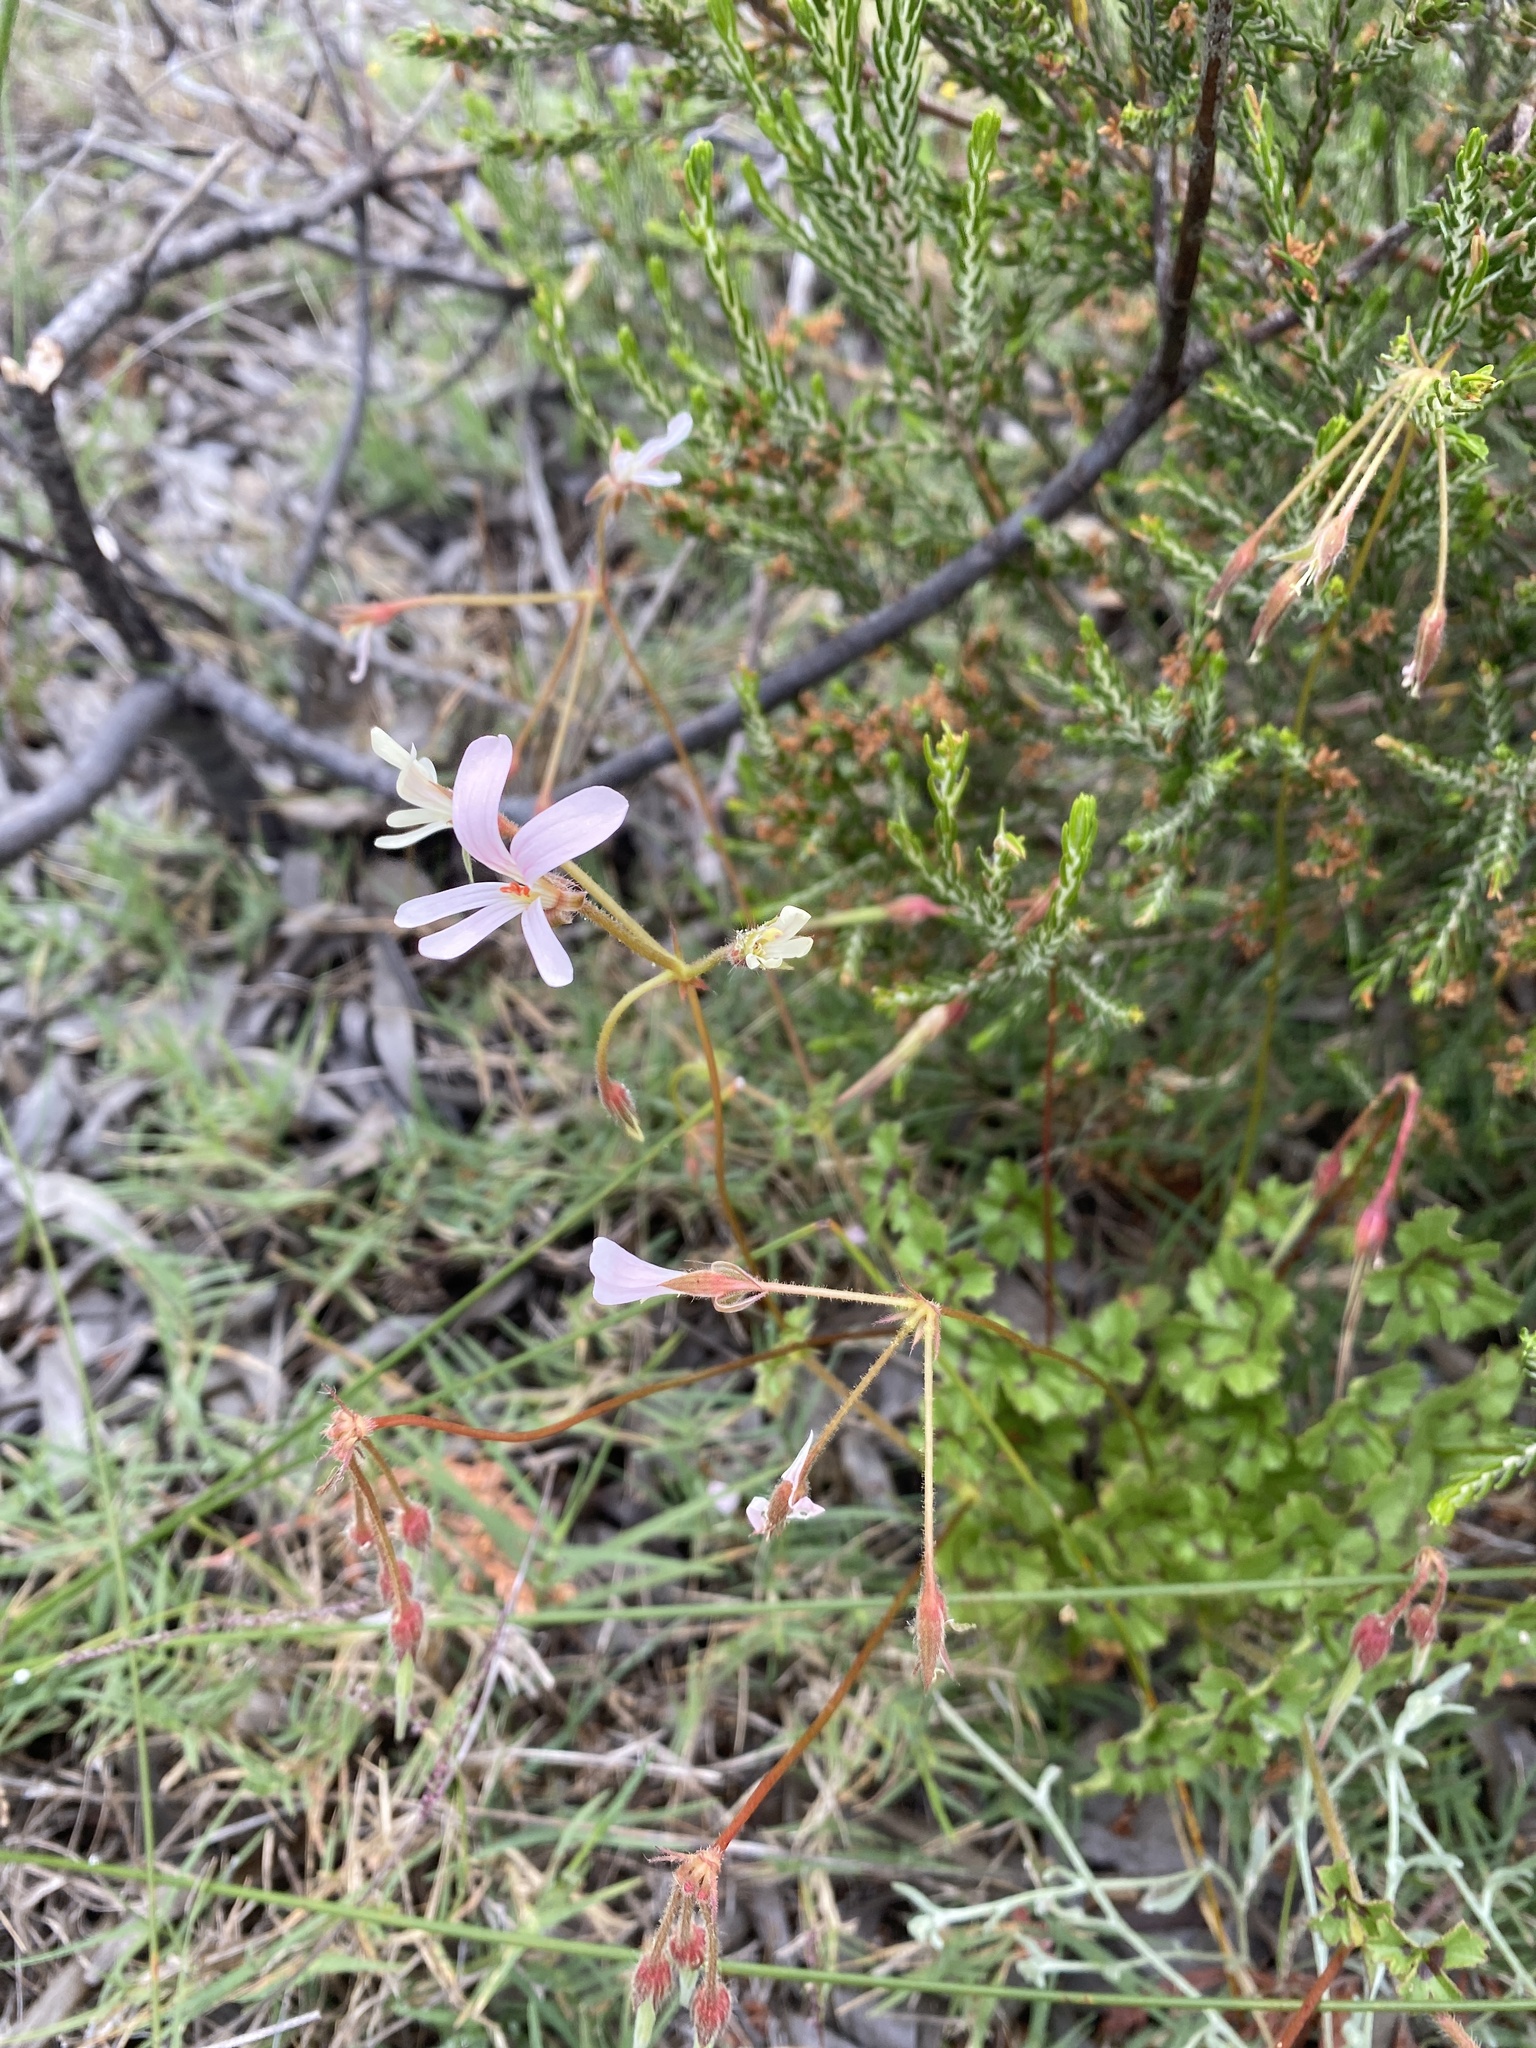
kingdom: Plantae
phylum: Tracheophyta
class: Magnoliopsida
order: Geraniales
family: Geraniaceae
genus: Pelargonium
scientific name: Pelargonium elongatum
